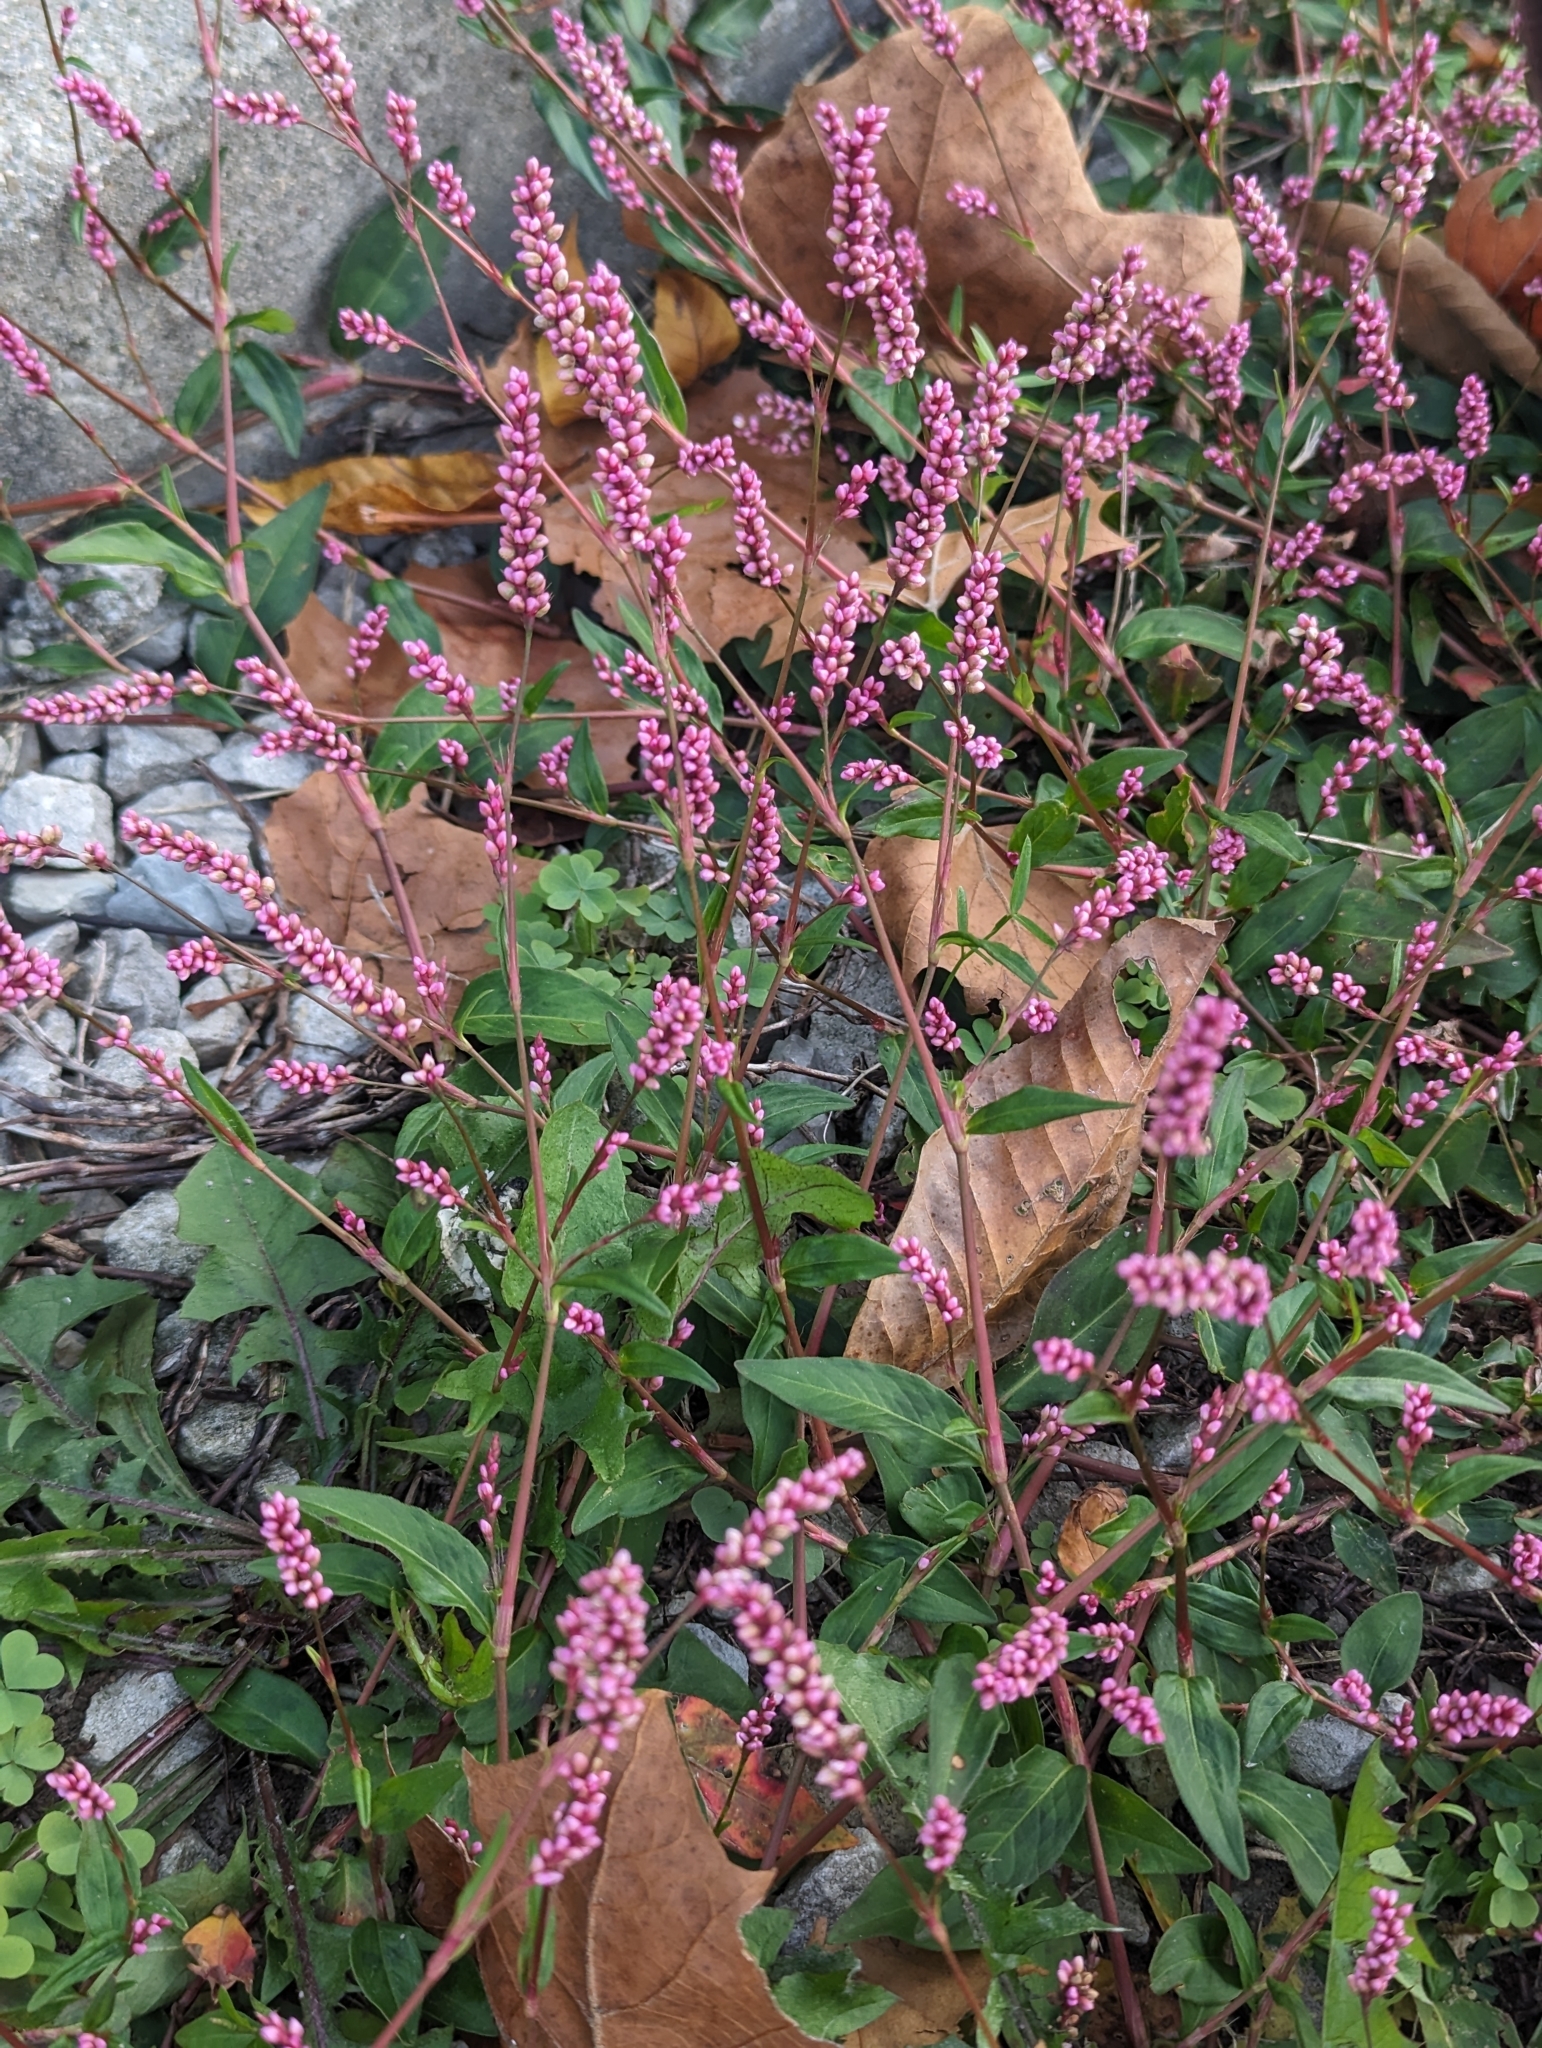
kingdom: Plantae
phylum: Tracheophyta
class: Magnoliopsida
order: Caryophyllales
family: Polygonaceae
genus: Persicaria
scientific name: Persicaria longiseta
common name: Bristly lady's-thumb
